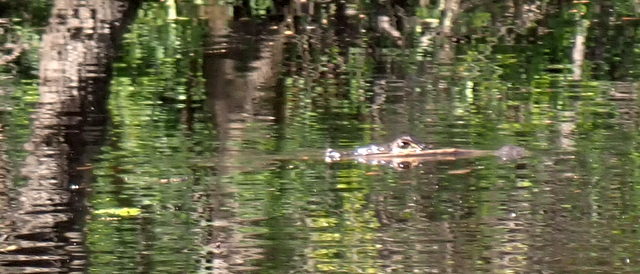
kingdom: Animalia
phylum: Chordata
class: Crocodylia
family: Alligatoridae
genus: Alligator
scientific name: Alligator mississippiensis
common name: American alligator
